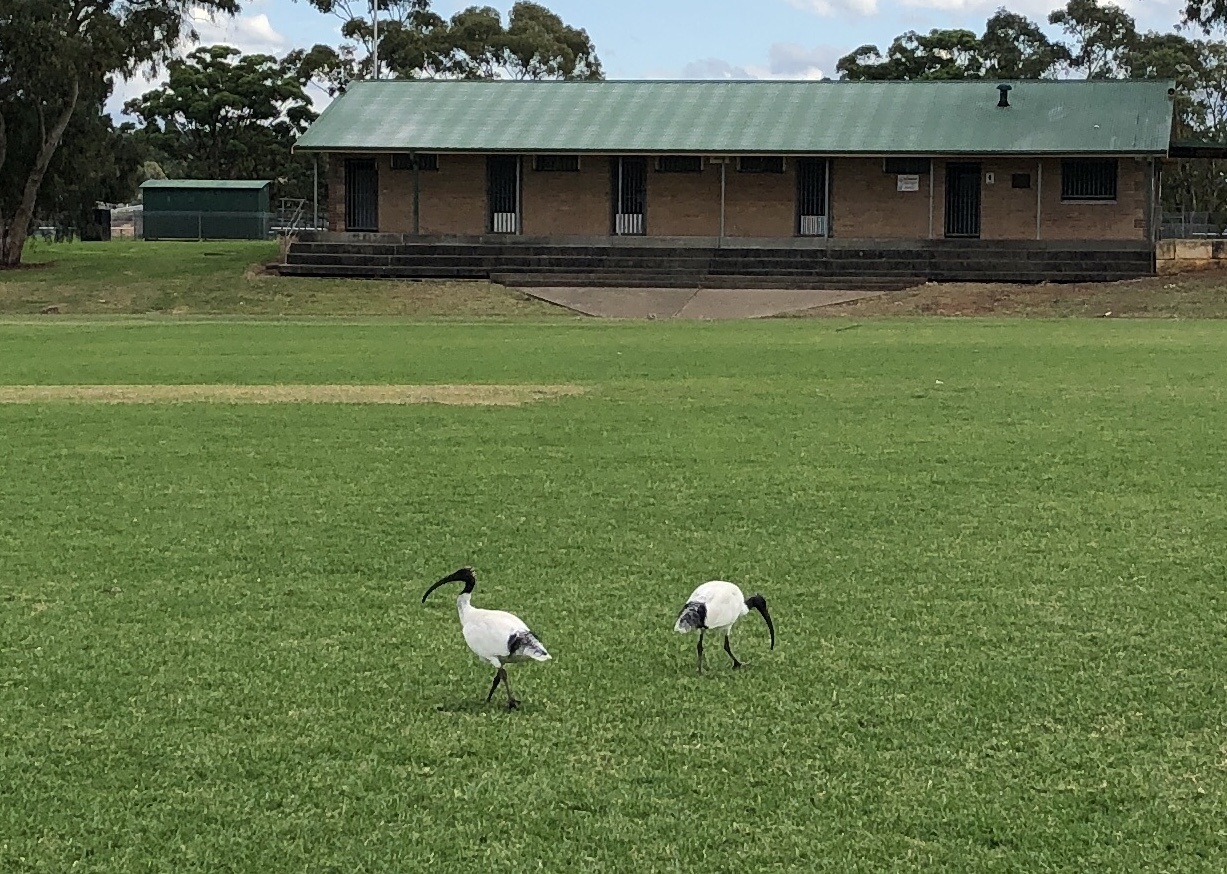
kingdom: Animalia
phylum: Chordata
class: Aves
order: Pelecaniformes
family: Threskiornithidae
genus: Threskiornis
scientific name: Threskiornis molucca
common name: Australian white ibis
